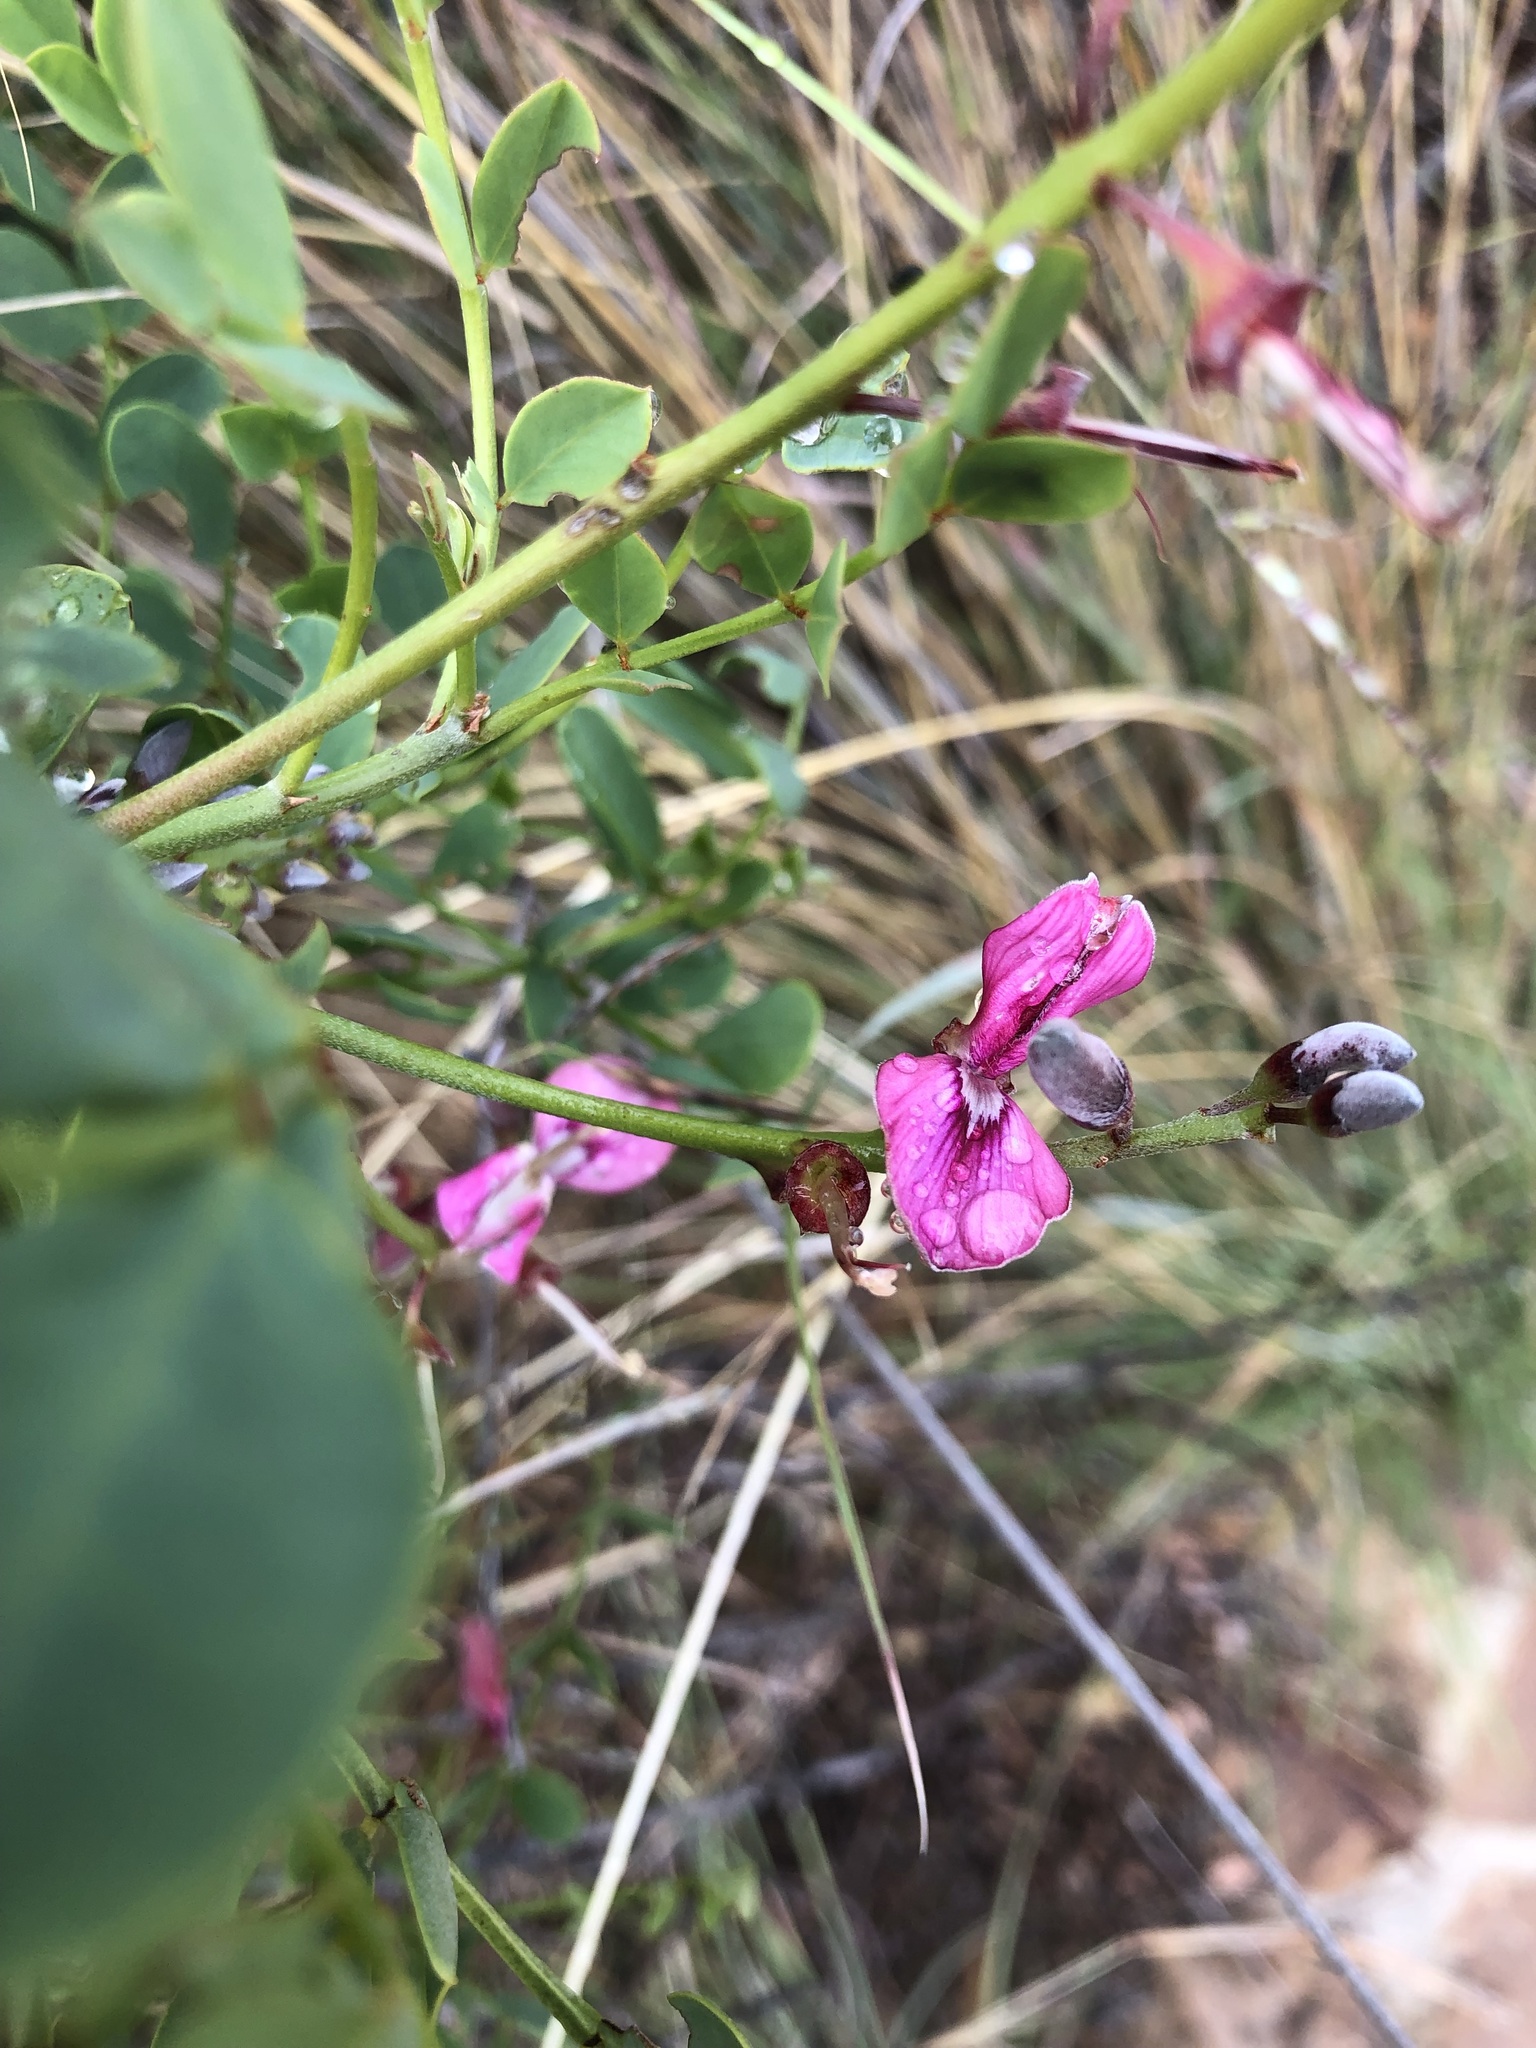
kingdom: Plantae
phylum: Tracheophyta
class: Magnoliopsida
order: Fabales
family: Fabaceae
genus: Indigofera
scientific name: Indigofera frutescens
